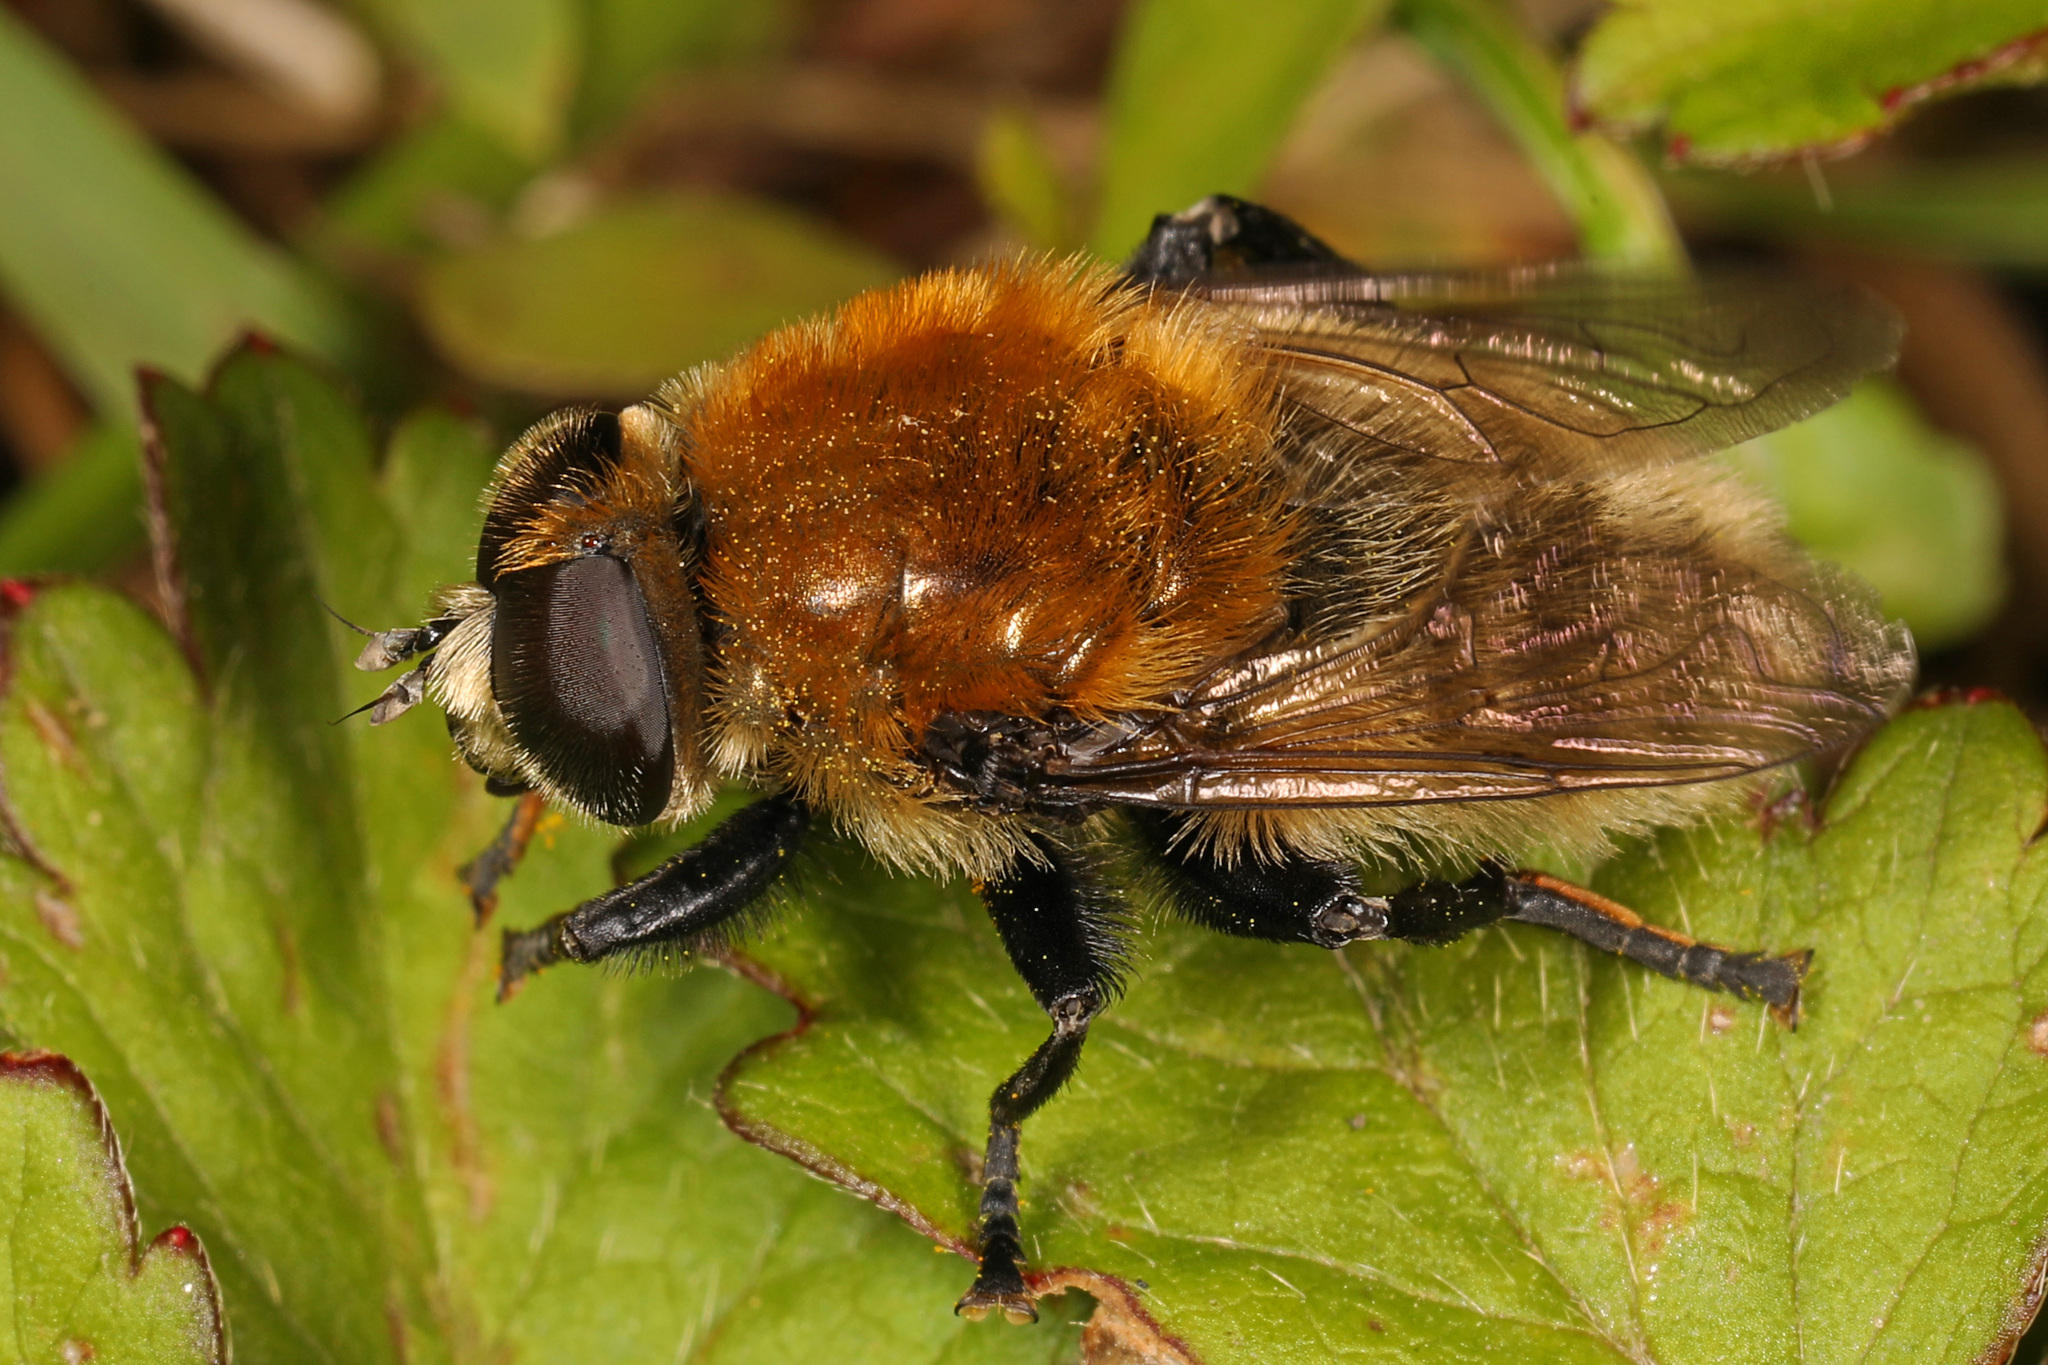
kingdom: Animalia
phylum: Arthropoda
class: Insecta
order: Diptera
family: Syrphidae
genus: Merodon
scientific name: Merodon equestris
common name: Greater bulb-fly
